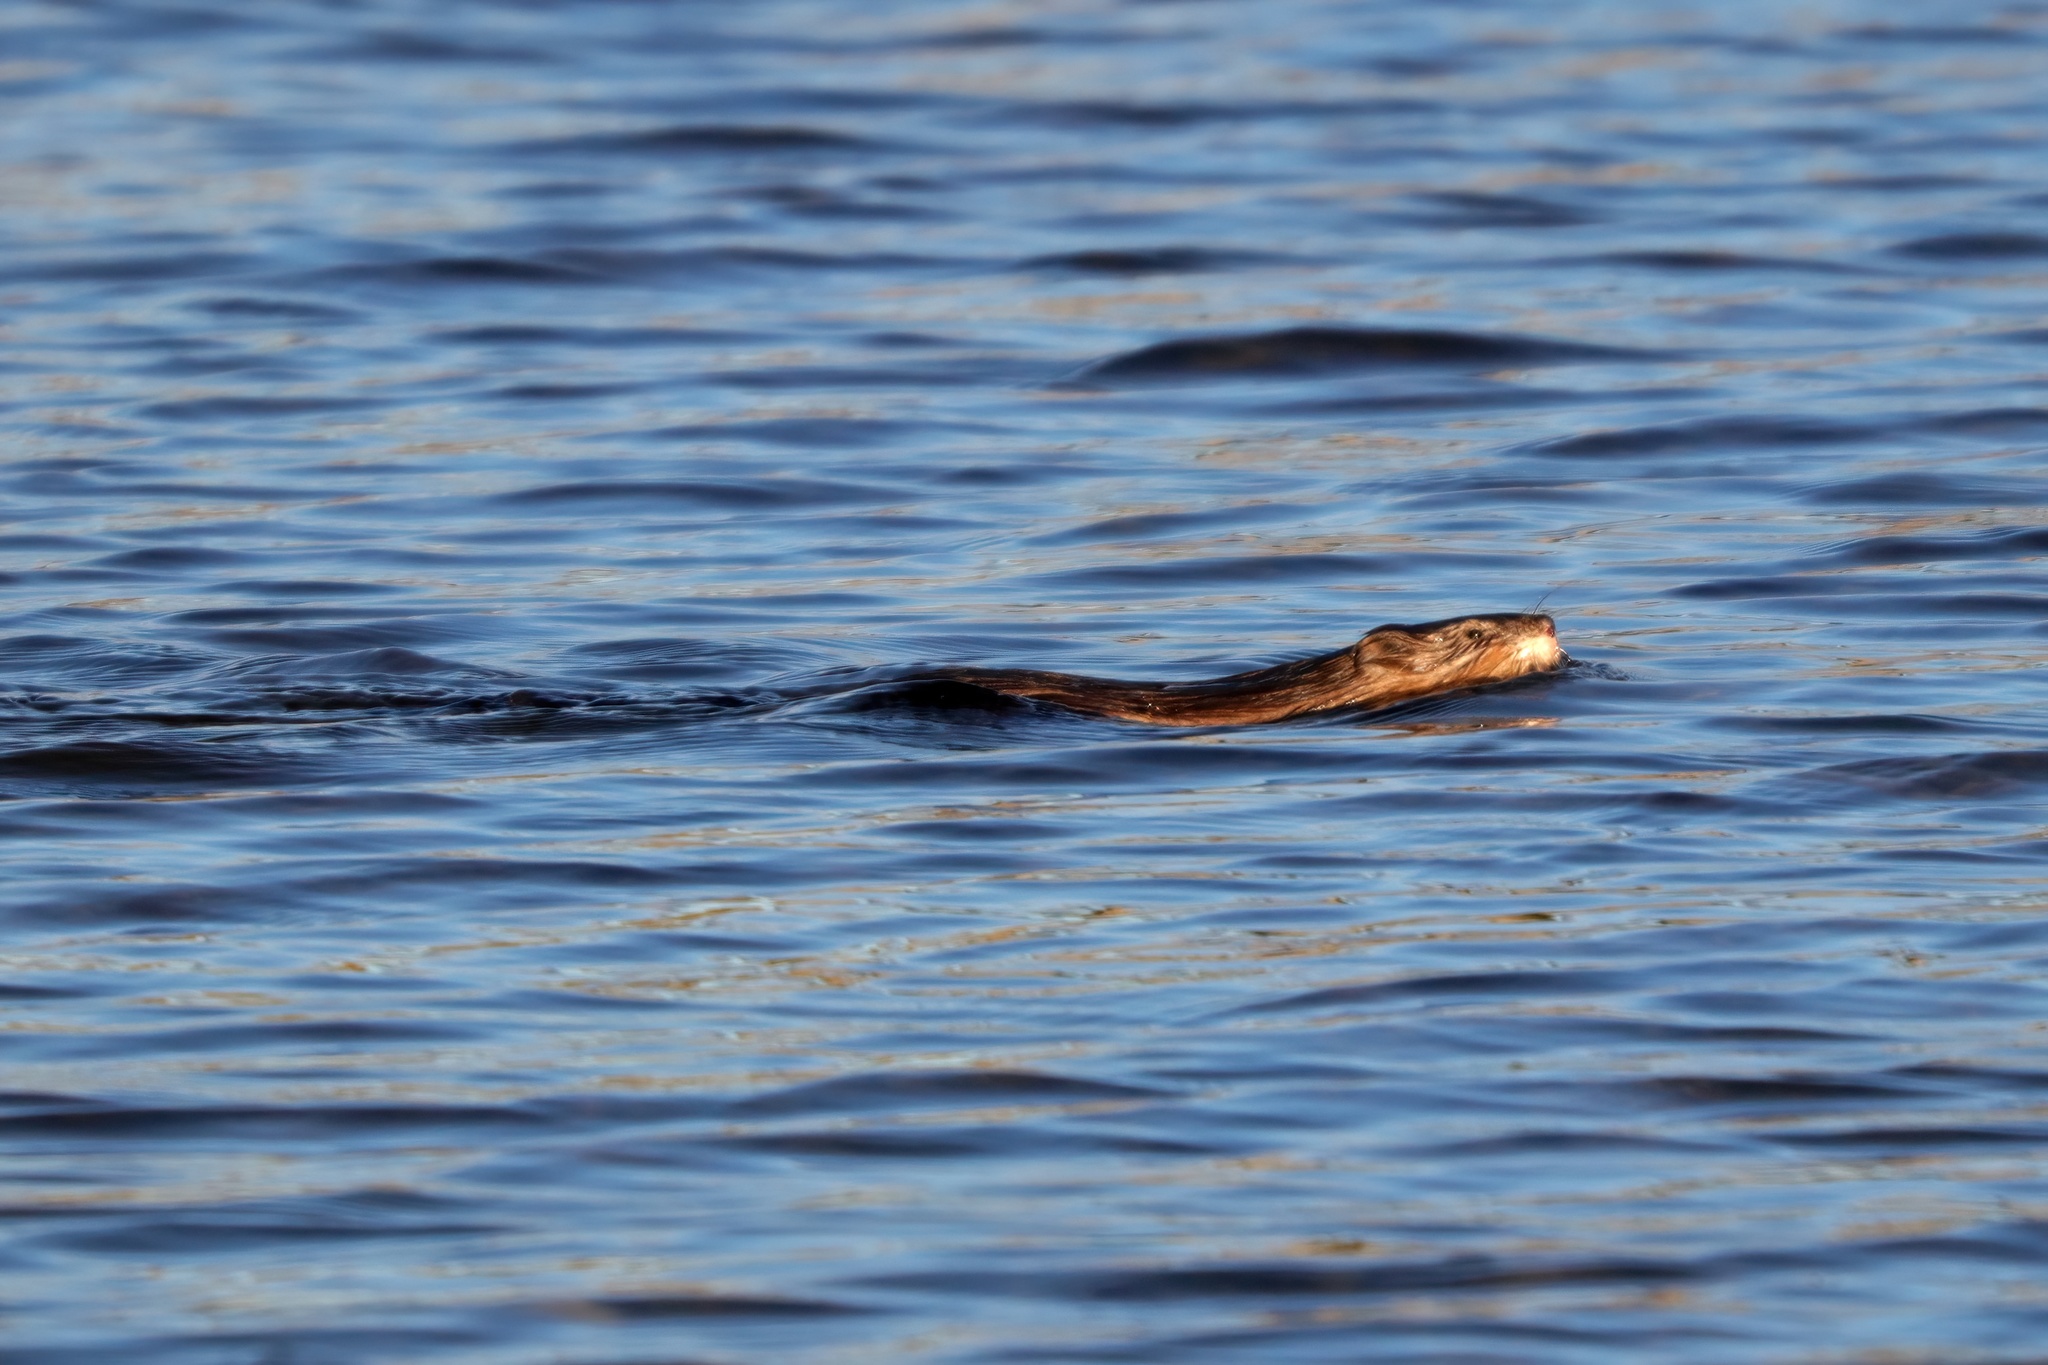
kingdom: Animalia
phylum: Chordata
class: Mammalia
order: Rodentia
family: Cricetidae
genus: Ondatra
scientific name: Ondatra zibethicus
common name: Muskrat
